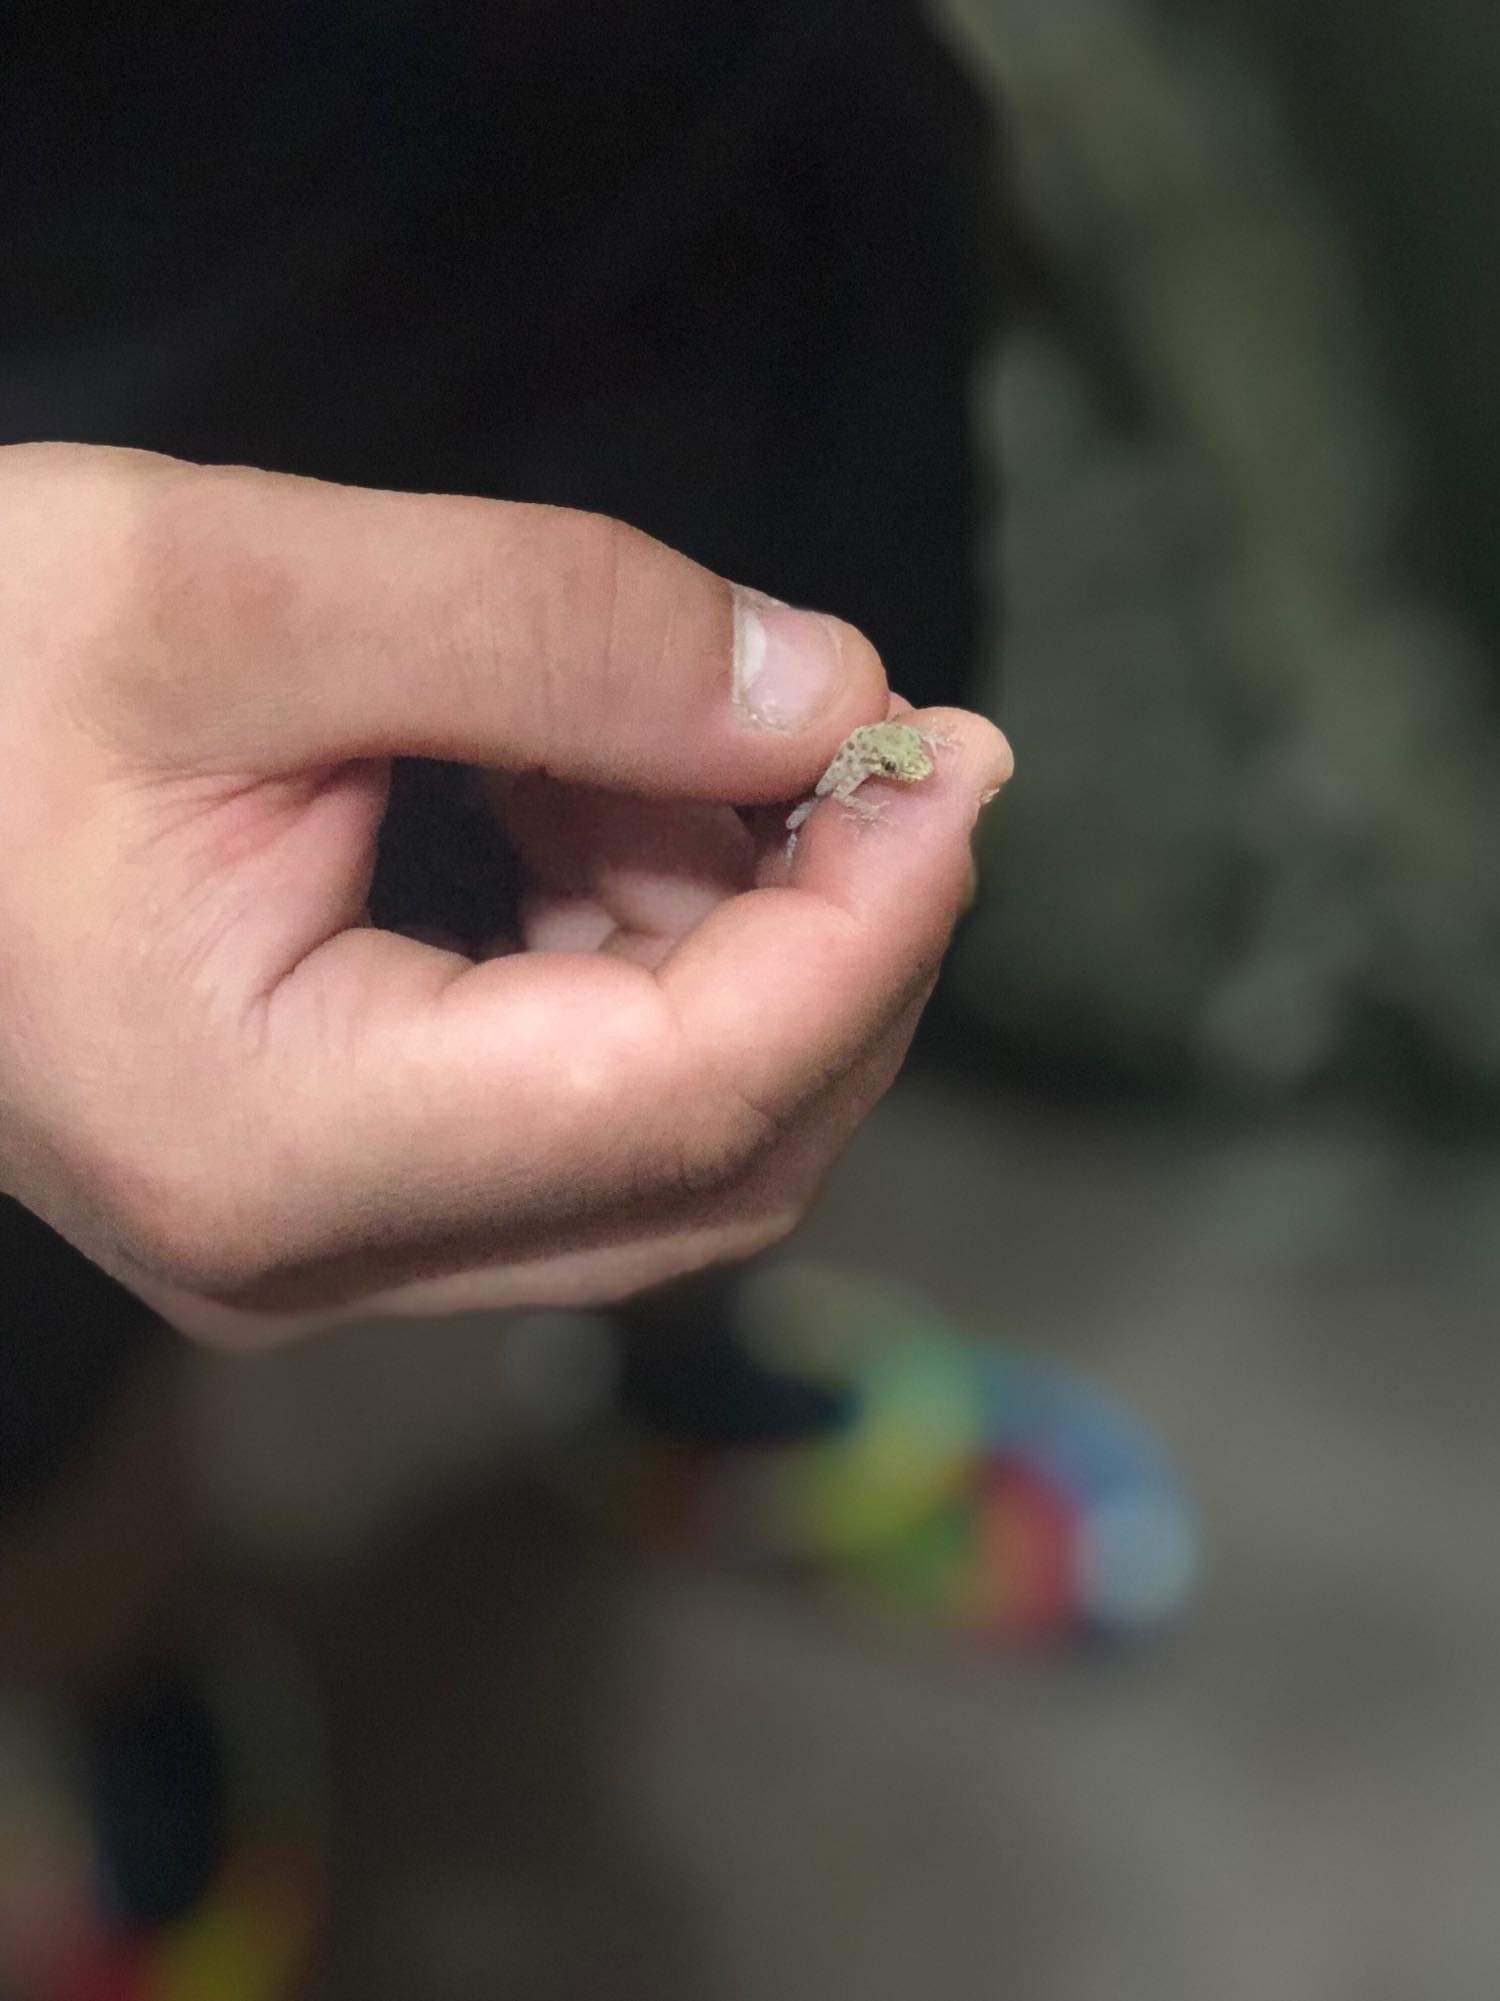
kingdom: Animalia
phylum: Chordata
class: Squamata
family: Gekkonidae
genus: Cyrtopodion
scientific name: Cyrtopodion scabrum
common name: Rough-tailed gecko
